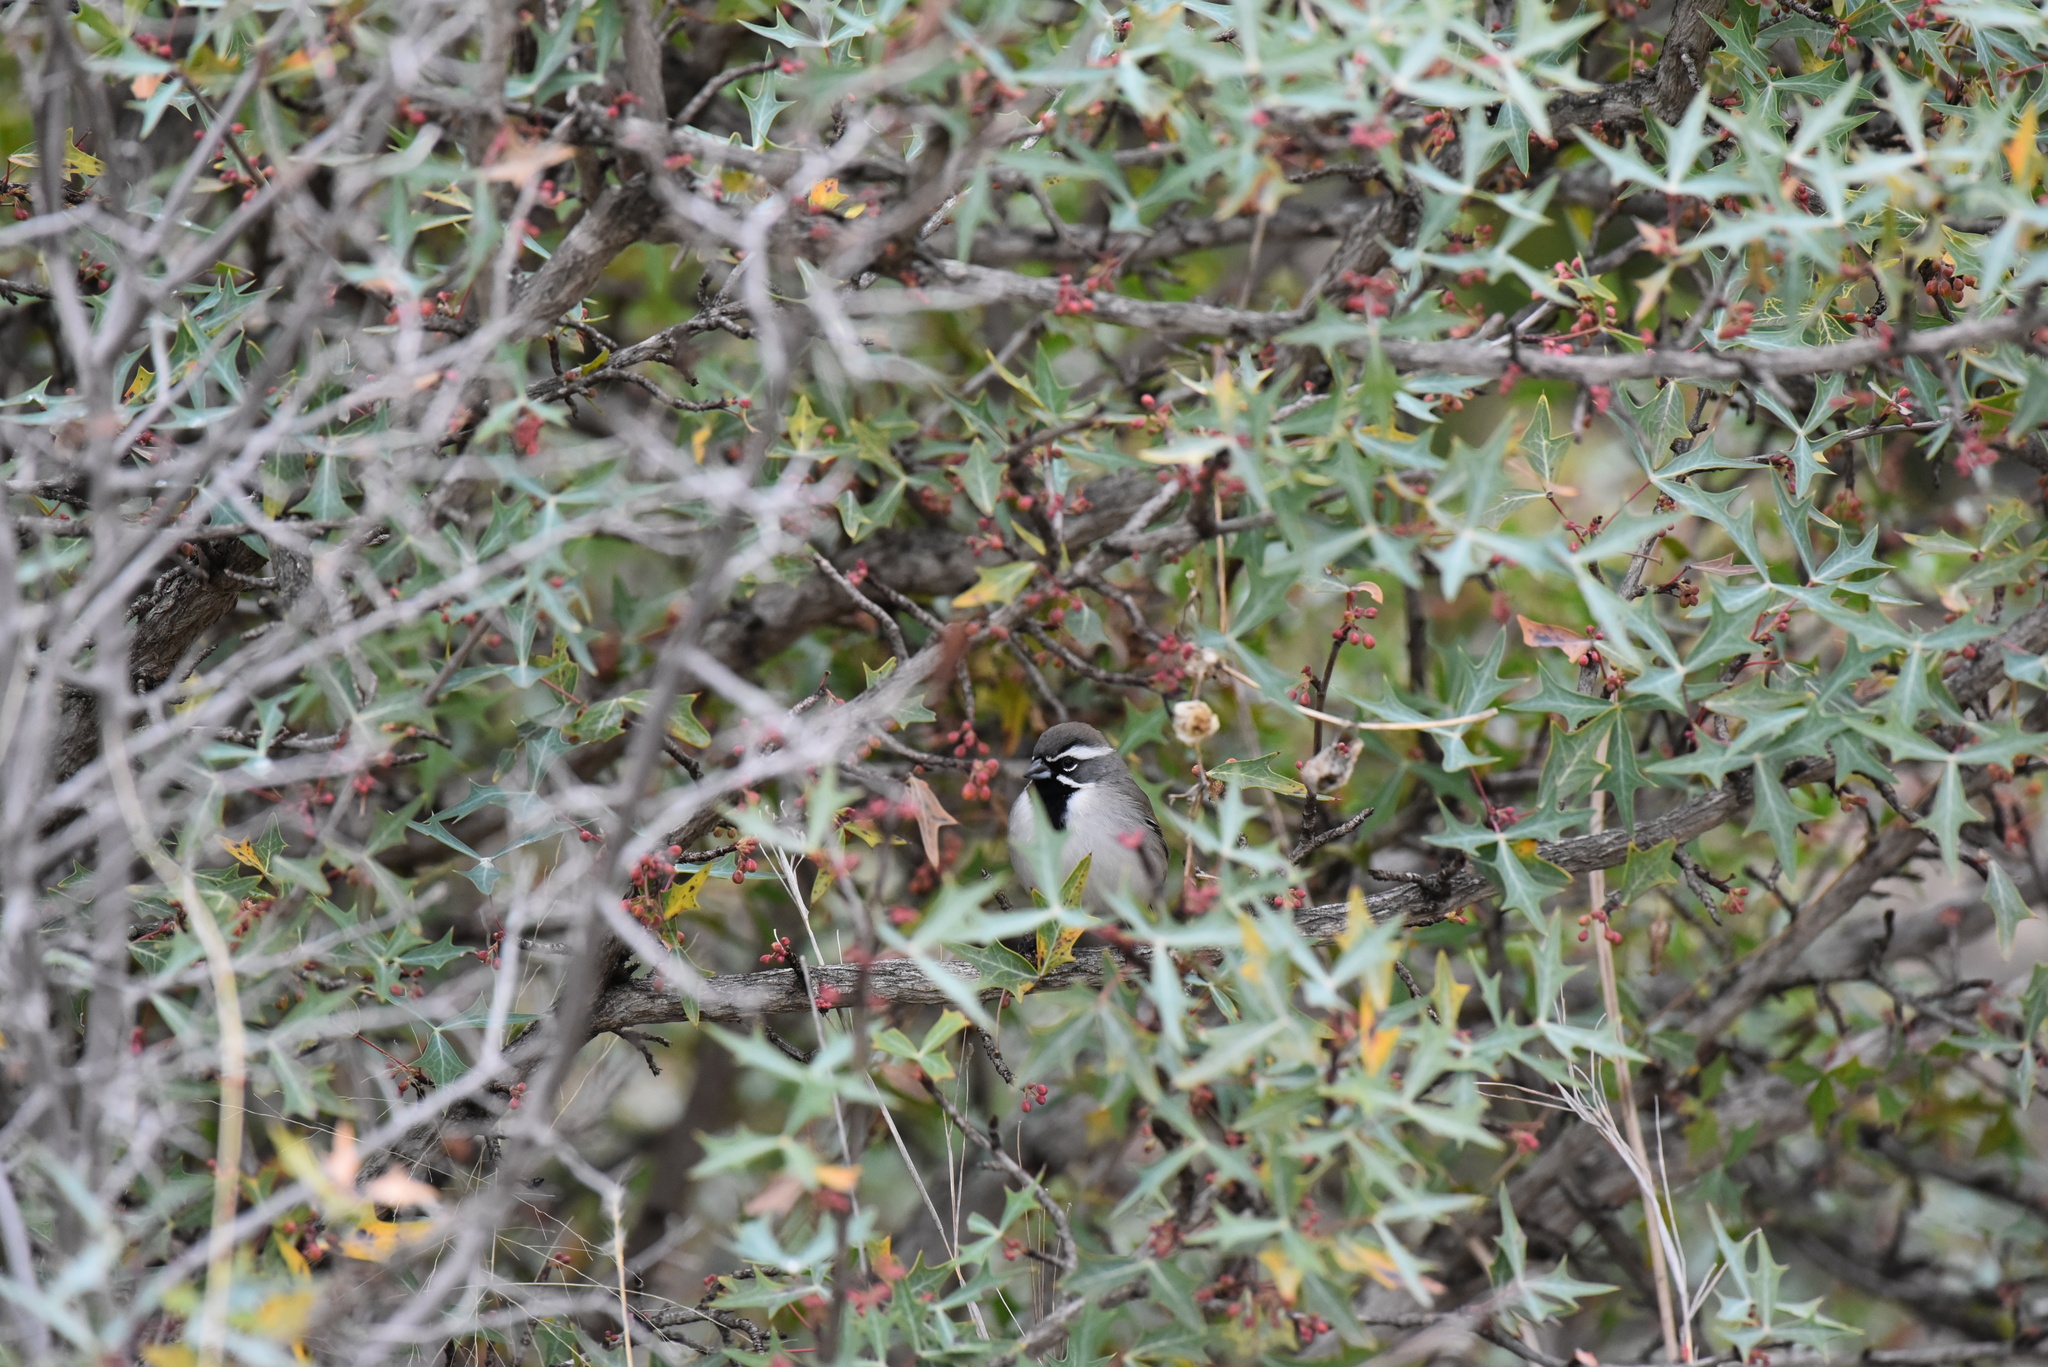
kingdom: Animalia
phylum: Chordata
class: Aves
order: Passeriformes
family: Passerellidae
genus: Amphispiza
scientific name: Amphispiza bilineata
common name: Black-throated sparrow
